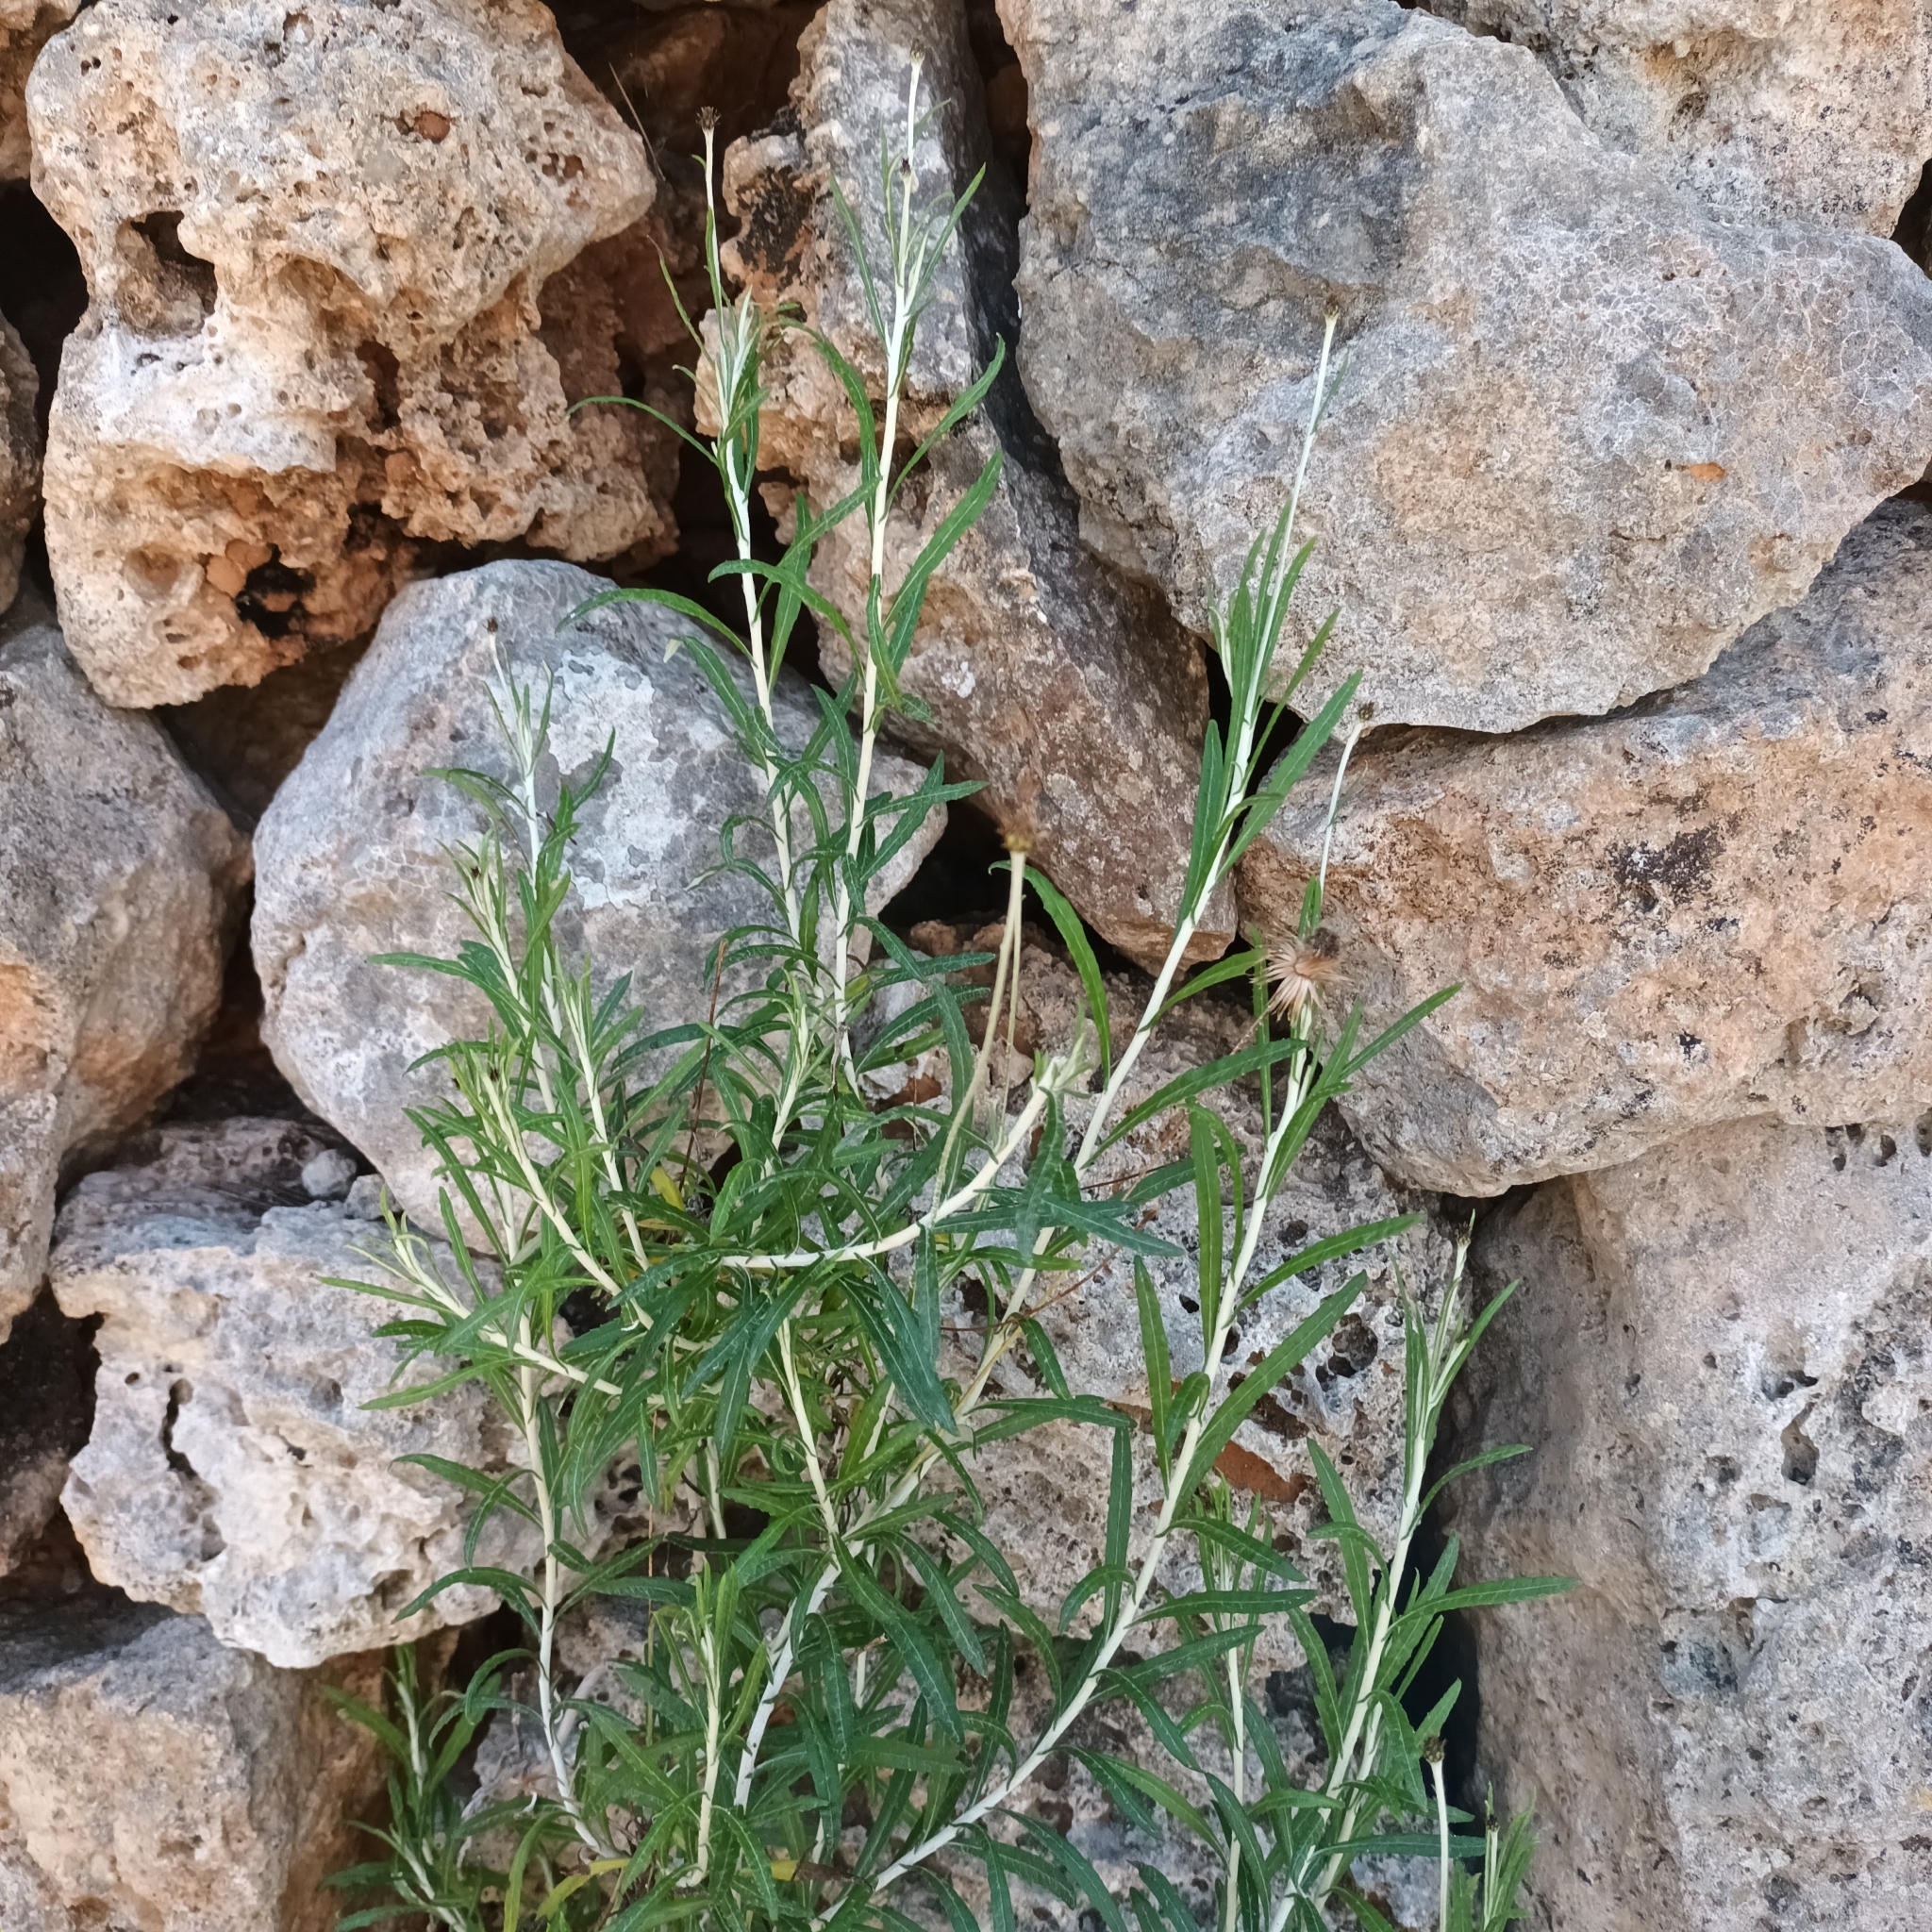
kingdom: Plantae
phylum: Tracheophyta
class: Magnoliopsida
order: Asterales
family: Asteraceae
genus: Phagnalon
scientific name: Phagnalon saxatile
